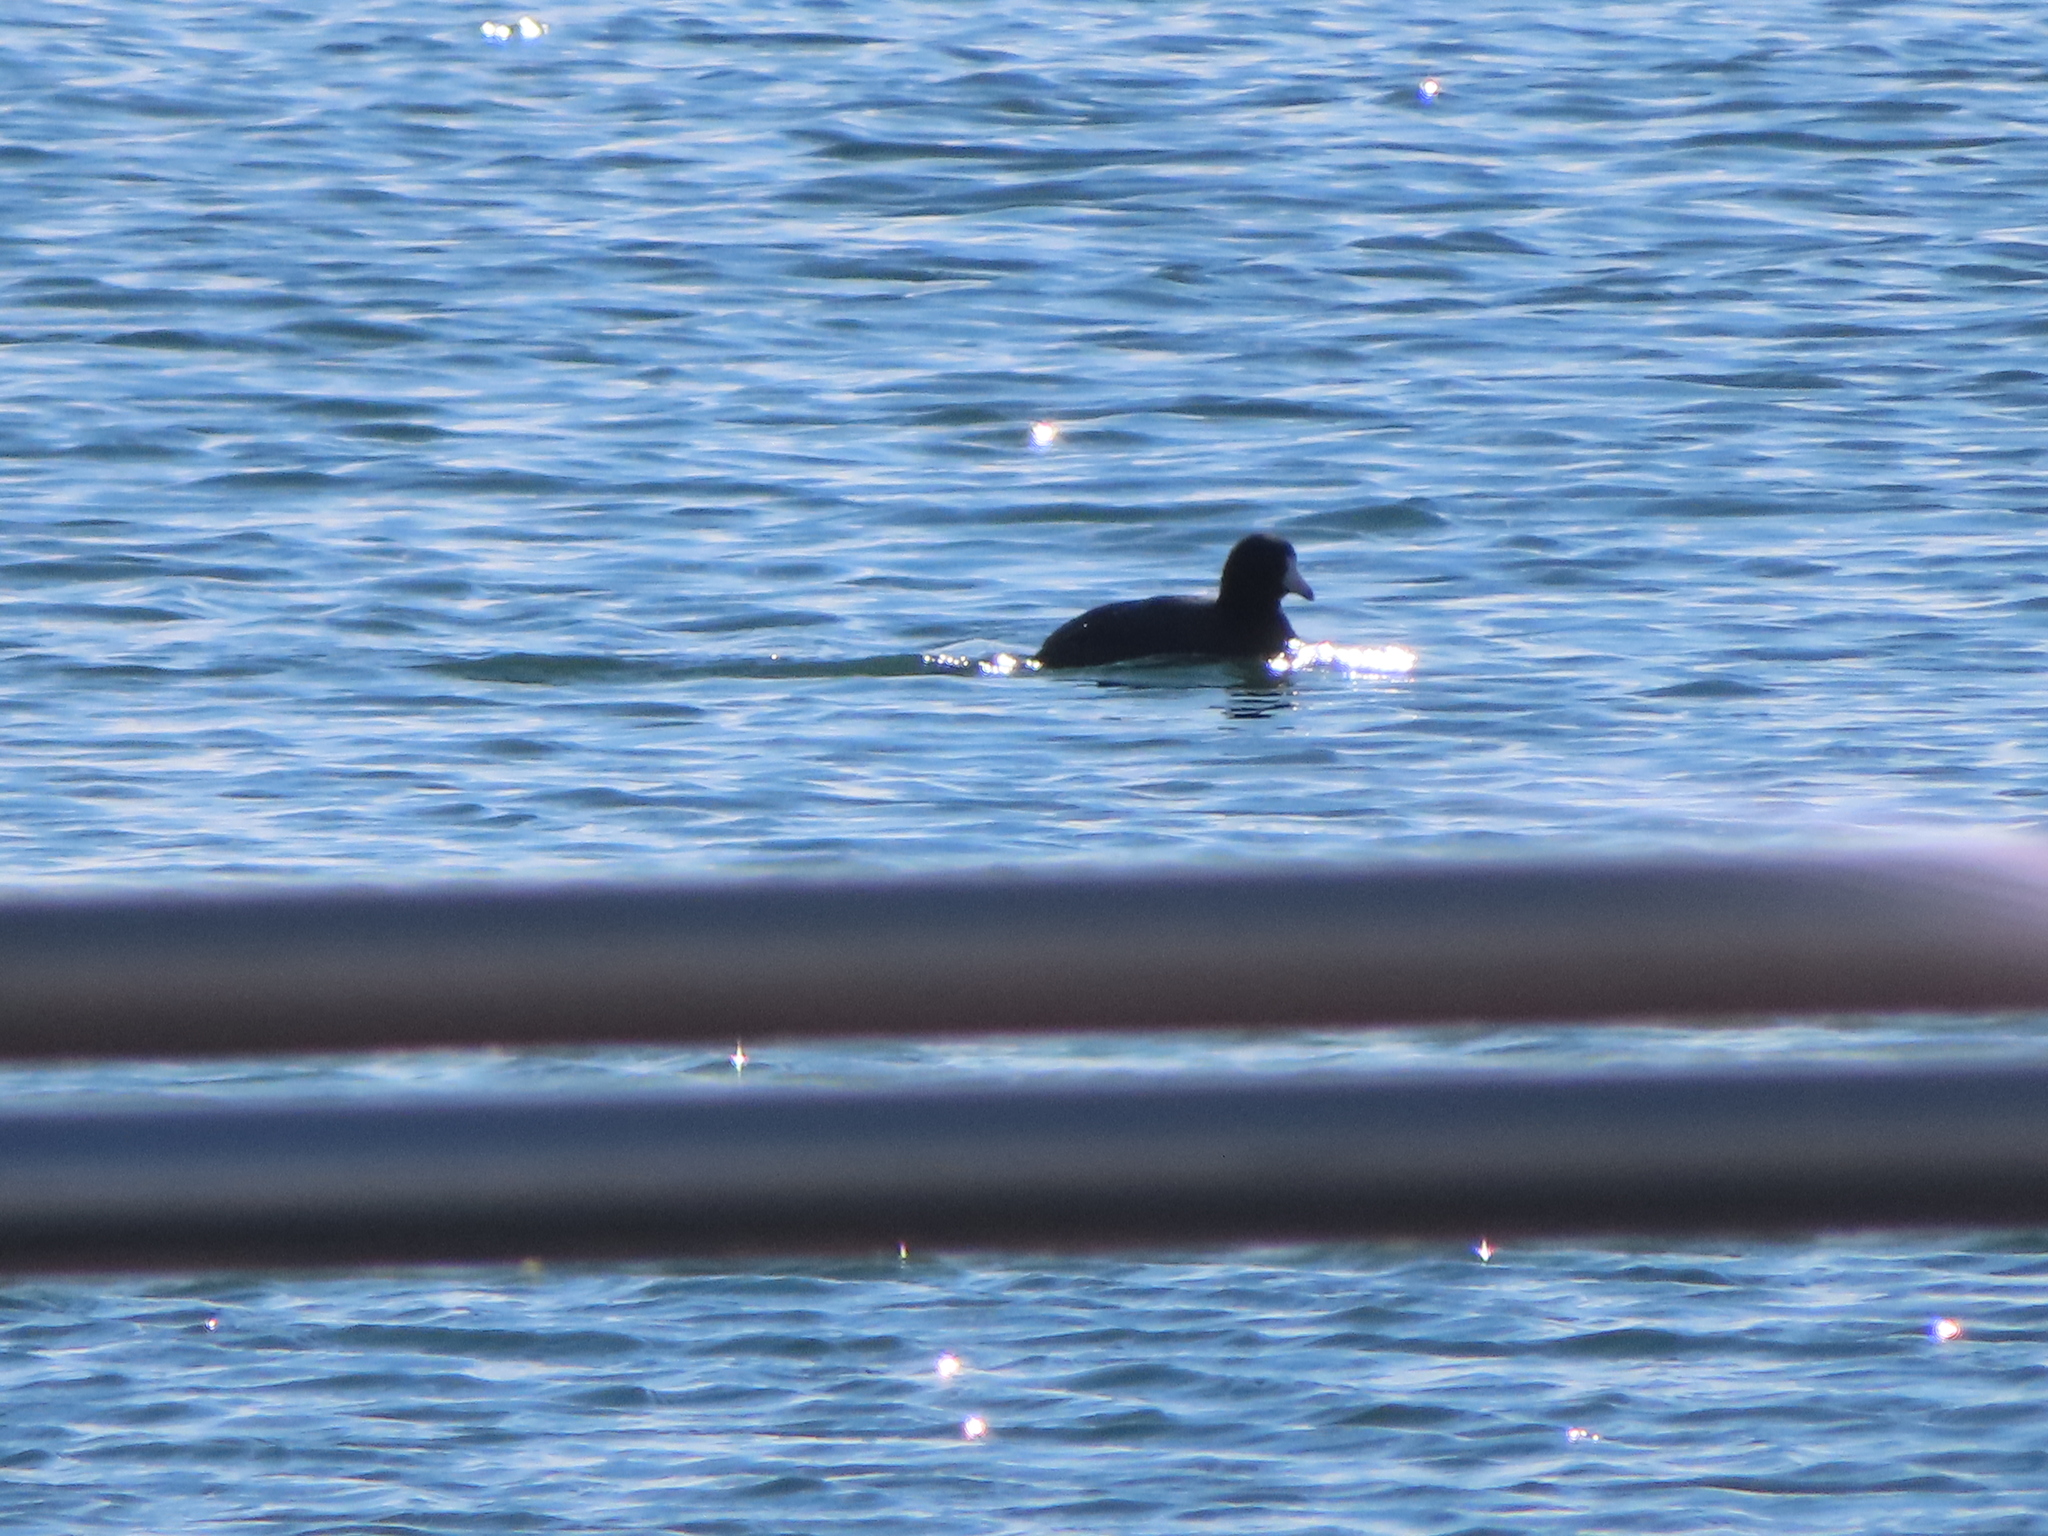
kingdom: Animalia
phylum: Chordata
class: Aves
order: Gruiformes
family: Rallidae
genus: Fulica
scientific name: Fulica americana
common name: American coot
